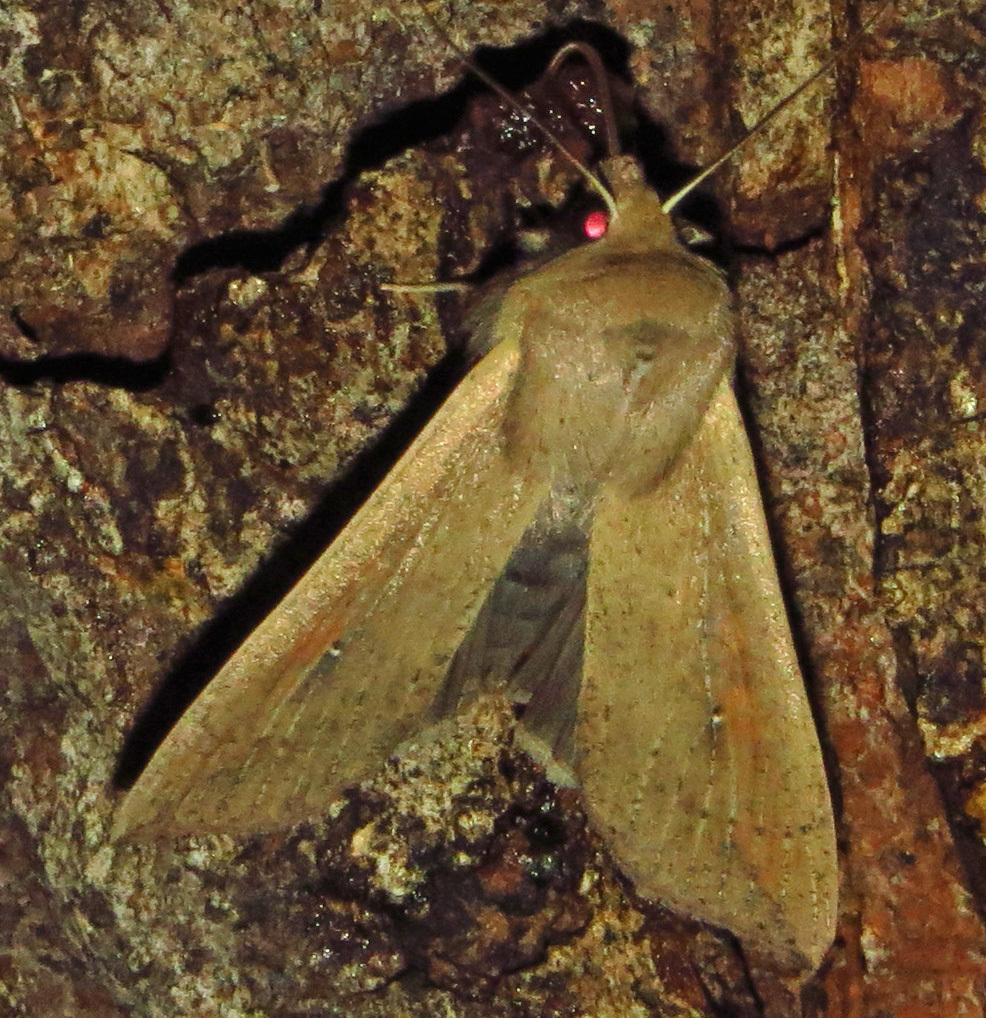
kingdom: Animalia
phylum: Arthropoda
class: Insecta
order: Lepidoptera
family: Noctuidae
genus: Mythimna
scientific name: Mythimna unipuncta
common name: White-speck
